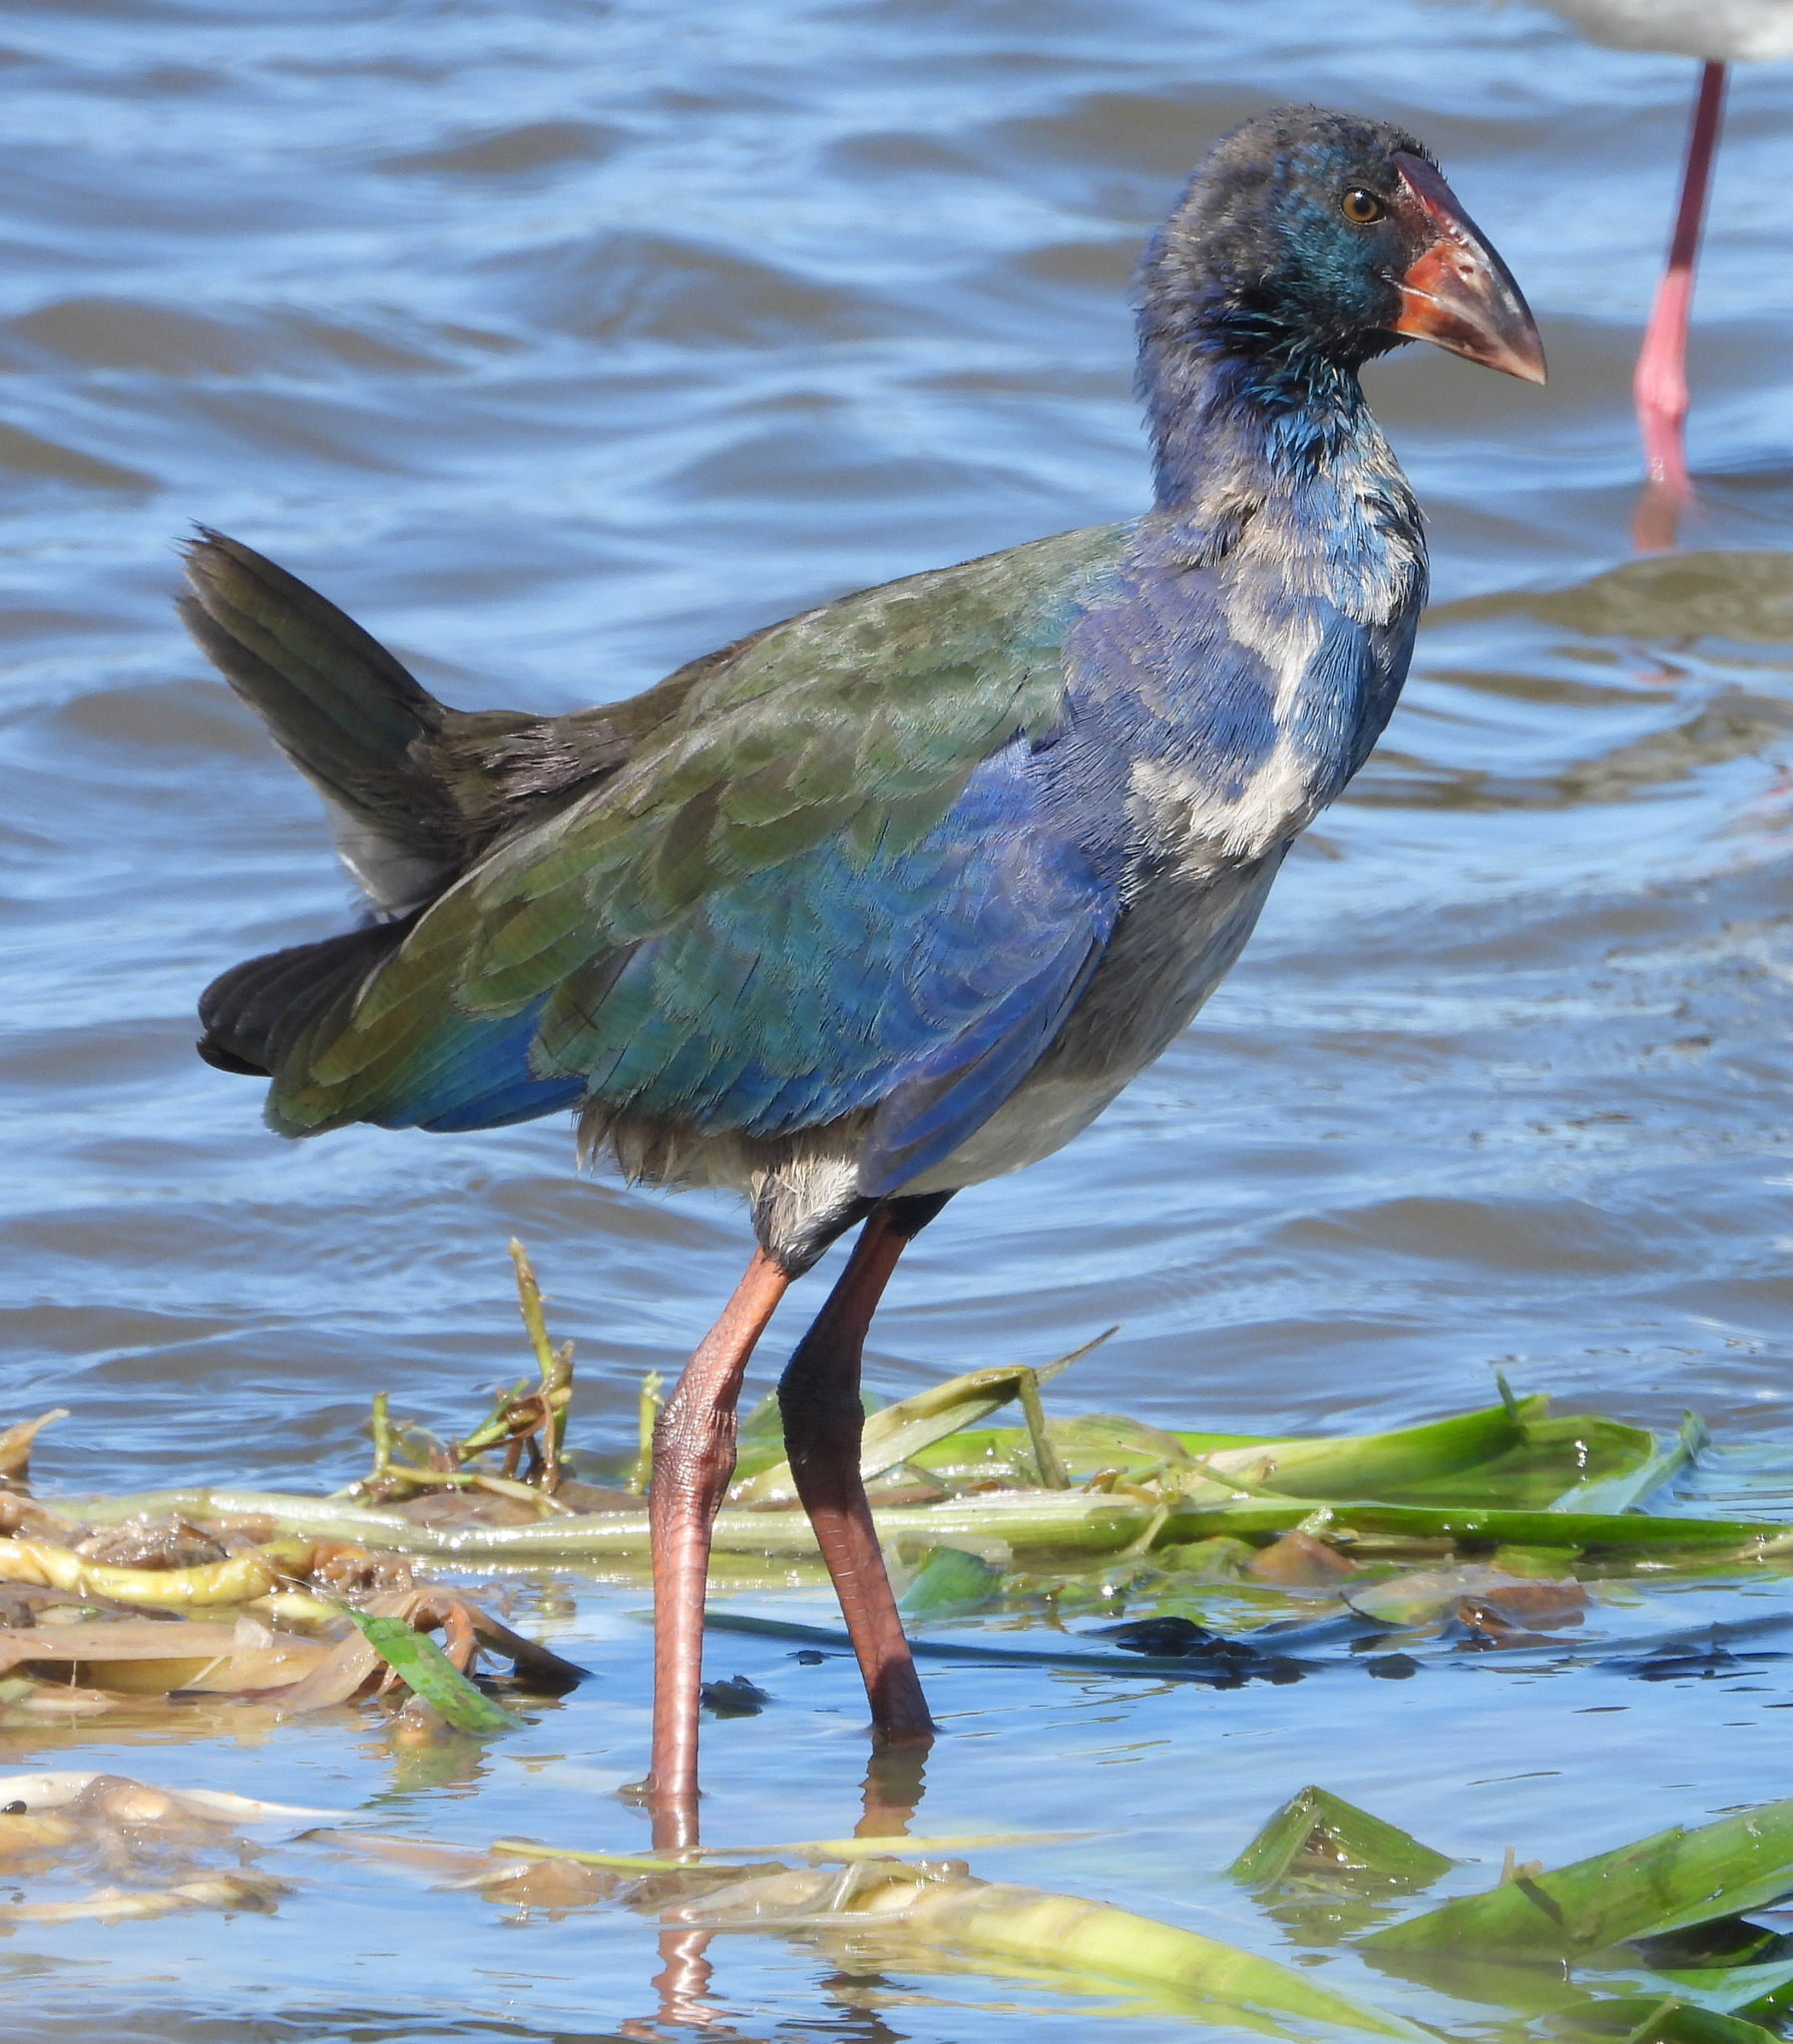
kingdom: Animalia
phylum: Chordata
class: Aves
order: Gruiformes
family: Rallidae
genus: Porphyrio
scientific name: Porphyrio porphyrio
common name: Purple swamphen
